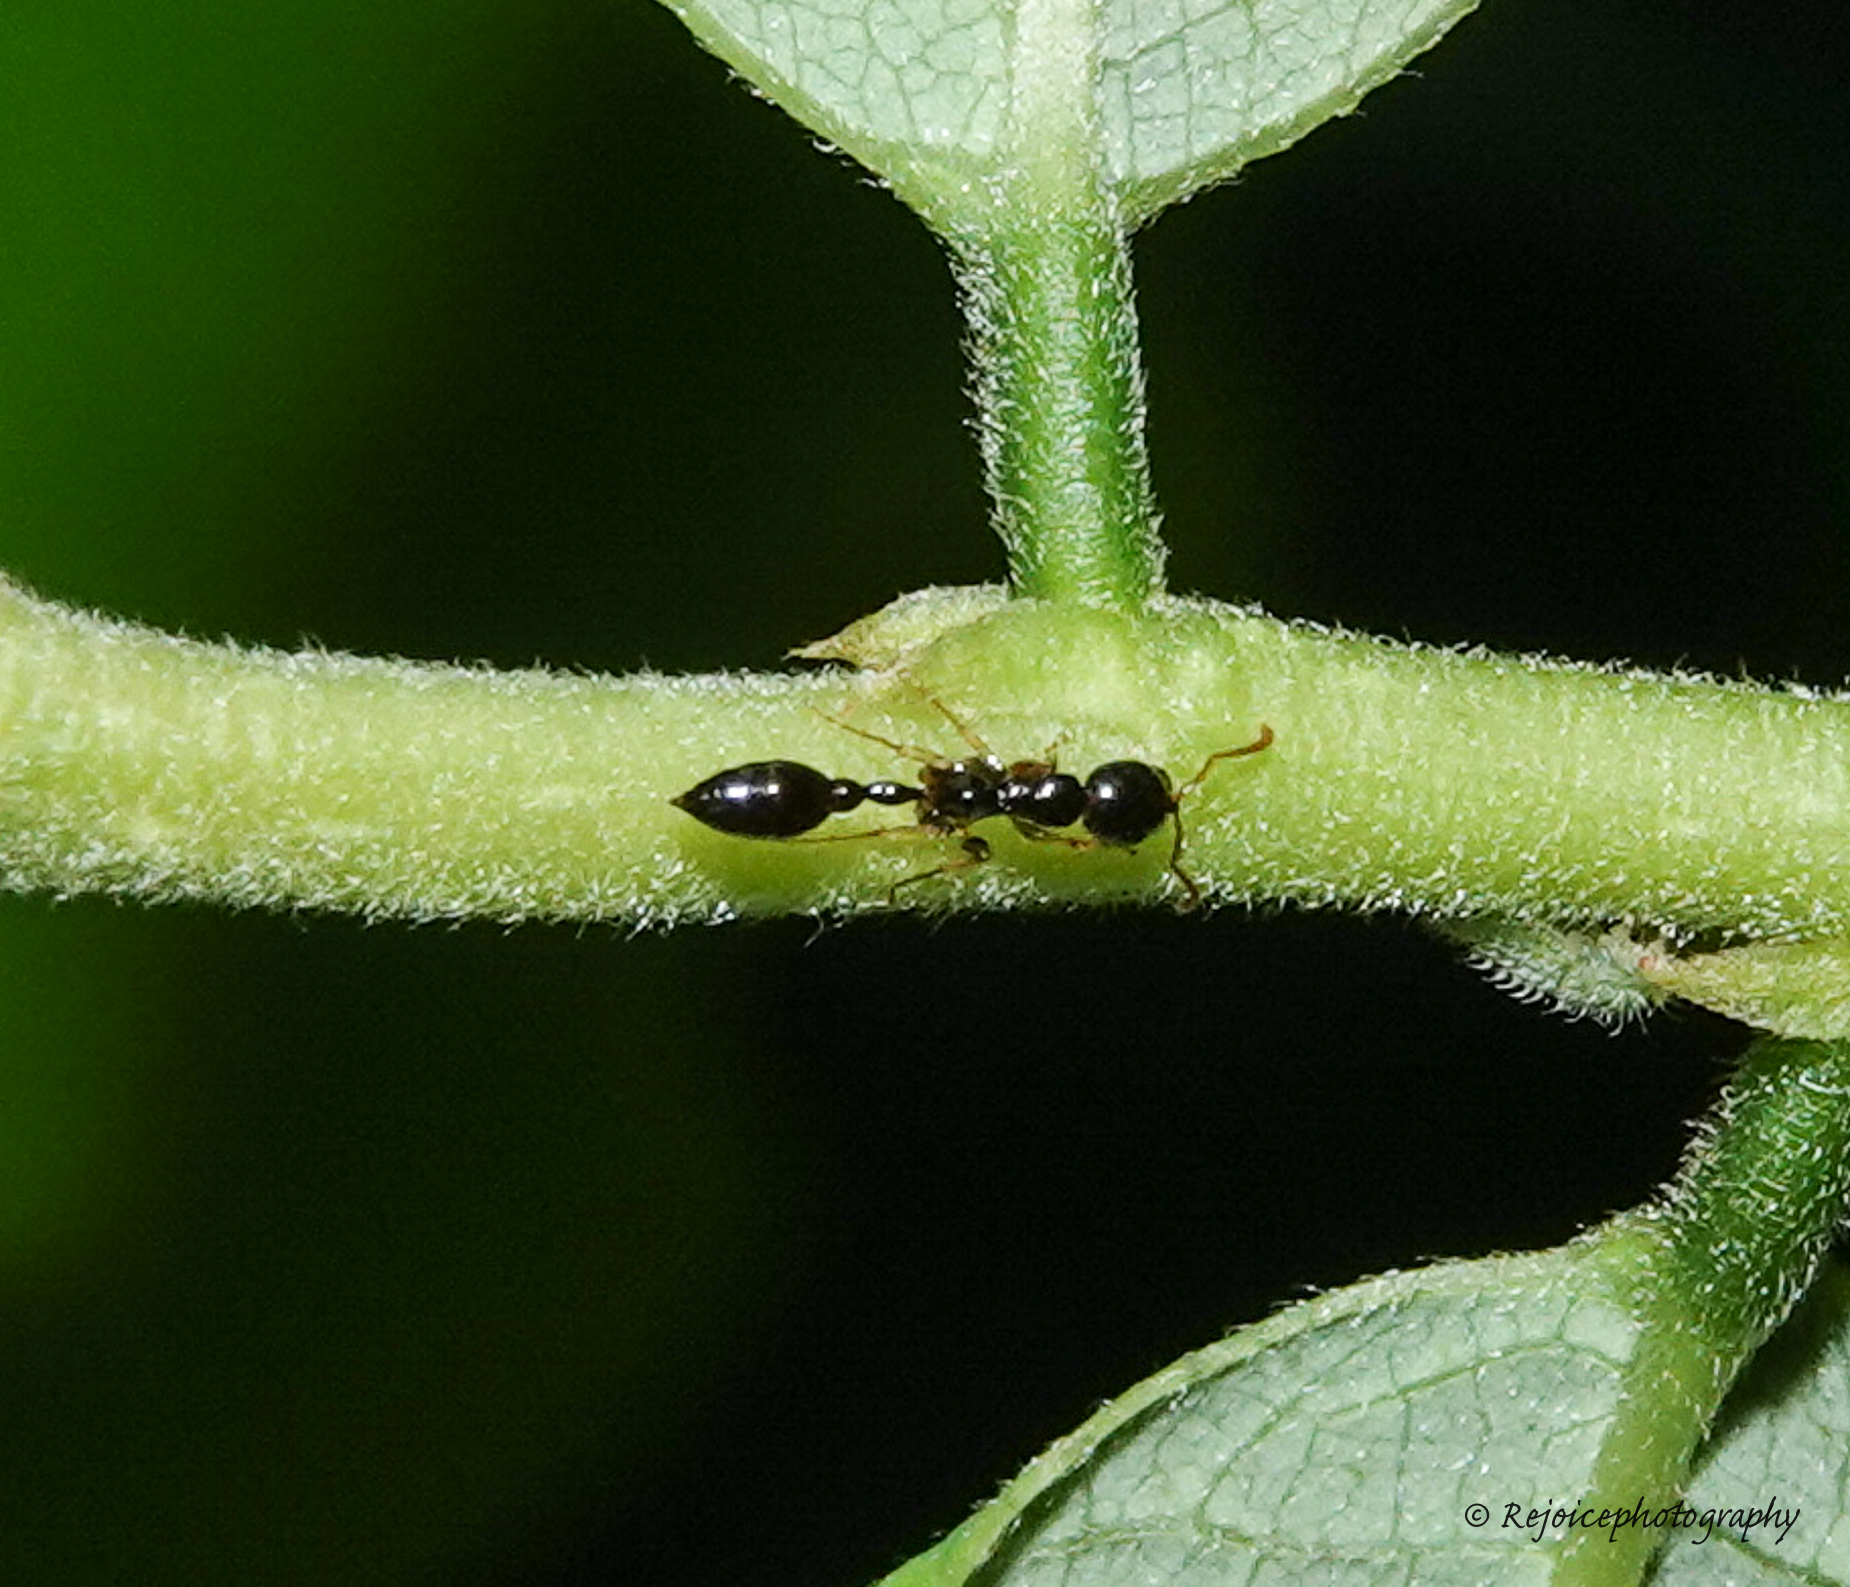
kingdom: Animalia
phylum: Arthropoda
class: Insecta
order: Hymenoptera
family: Formicidae
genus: Tetraponera
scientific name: Tetraponera allaborans
